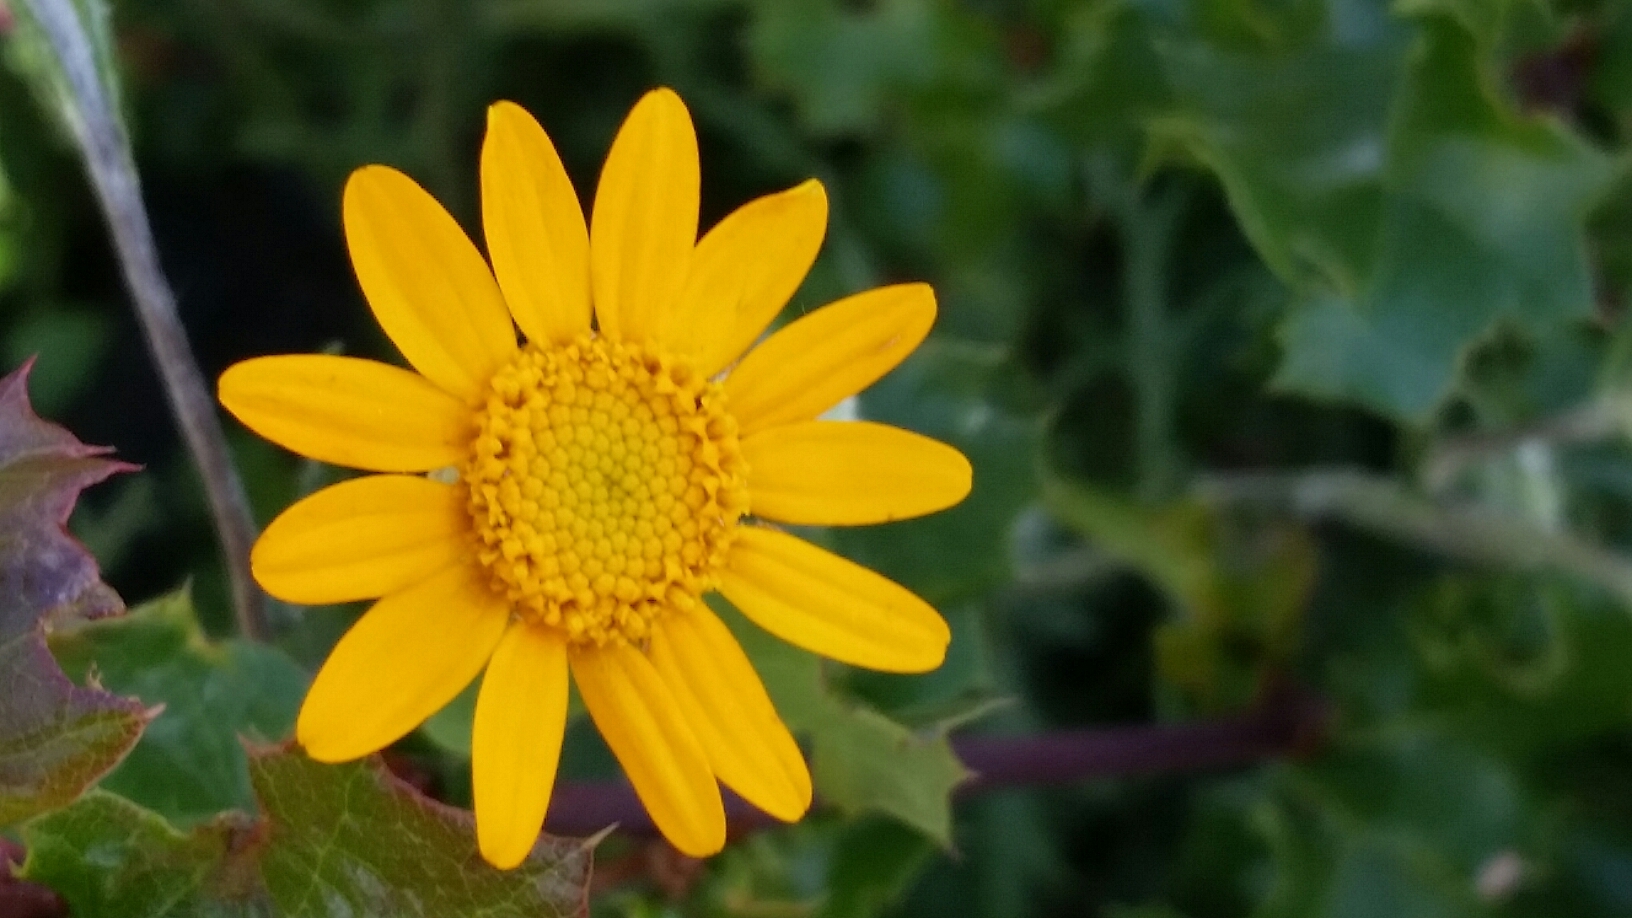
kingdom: Plantae
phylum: Tracheophyta
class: Magnoliopsida
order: Asterales
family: Asteraceae
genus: Eriophyllum
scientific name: Eriophyllum lanatum
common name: Common woolly-sunflower
